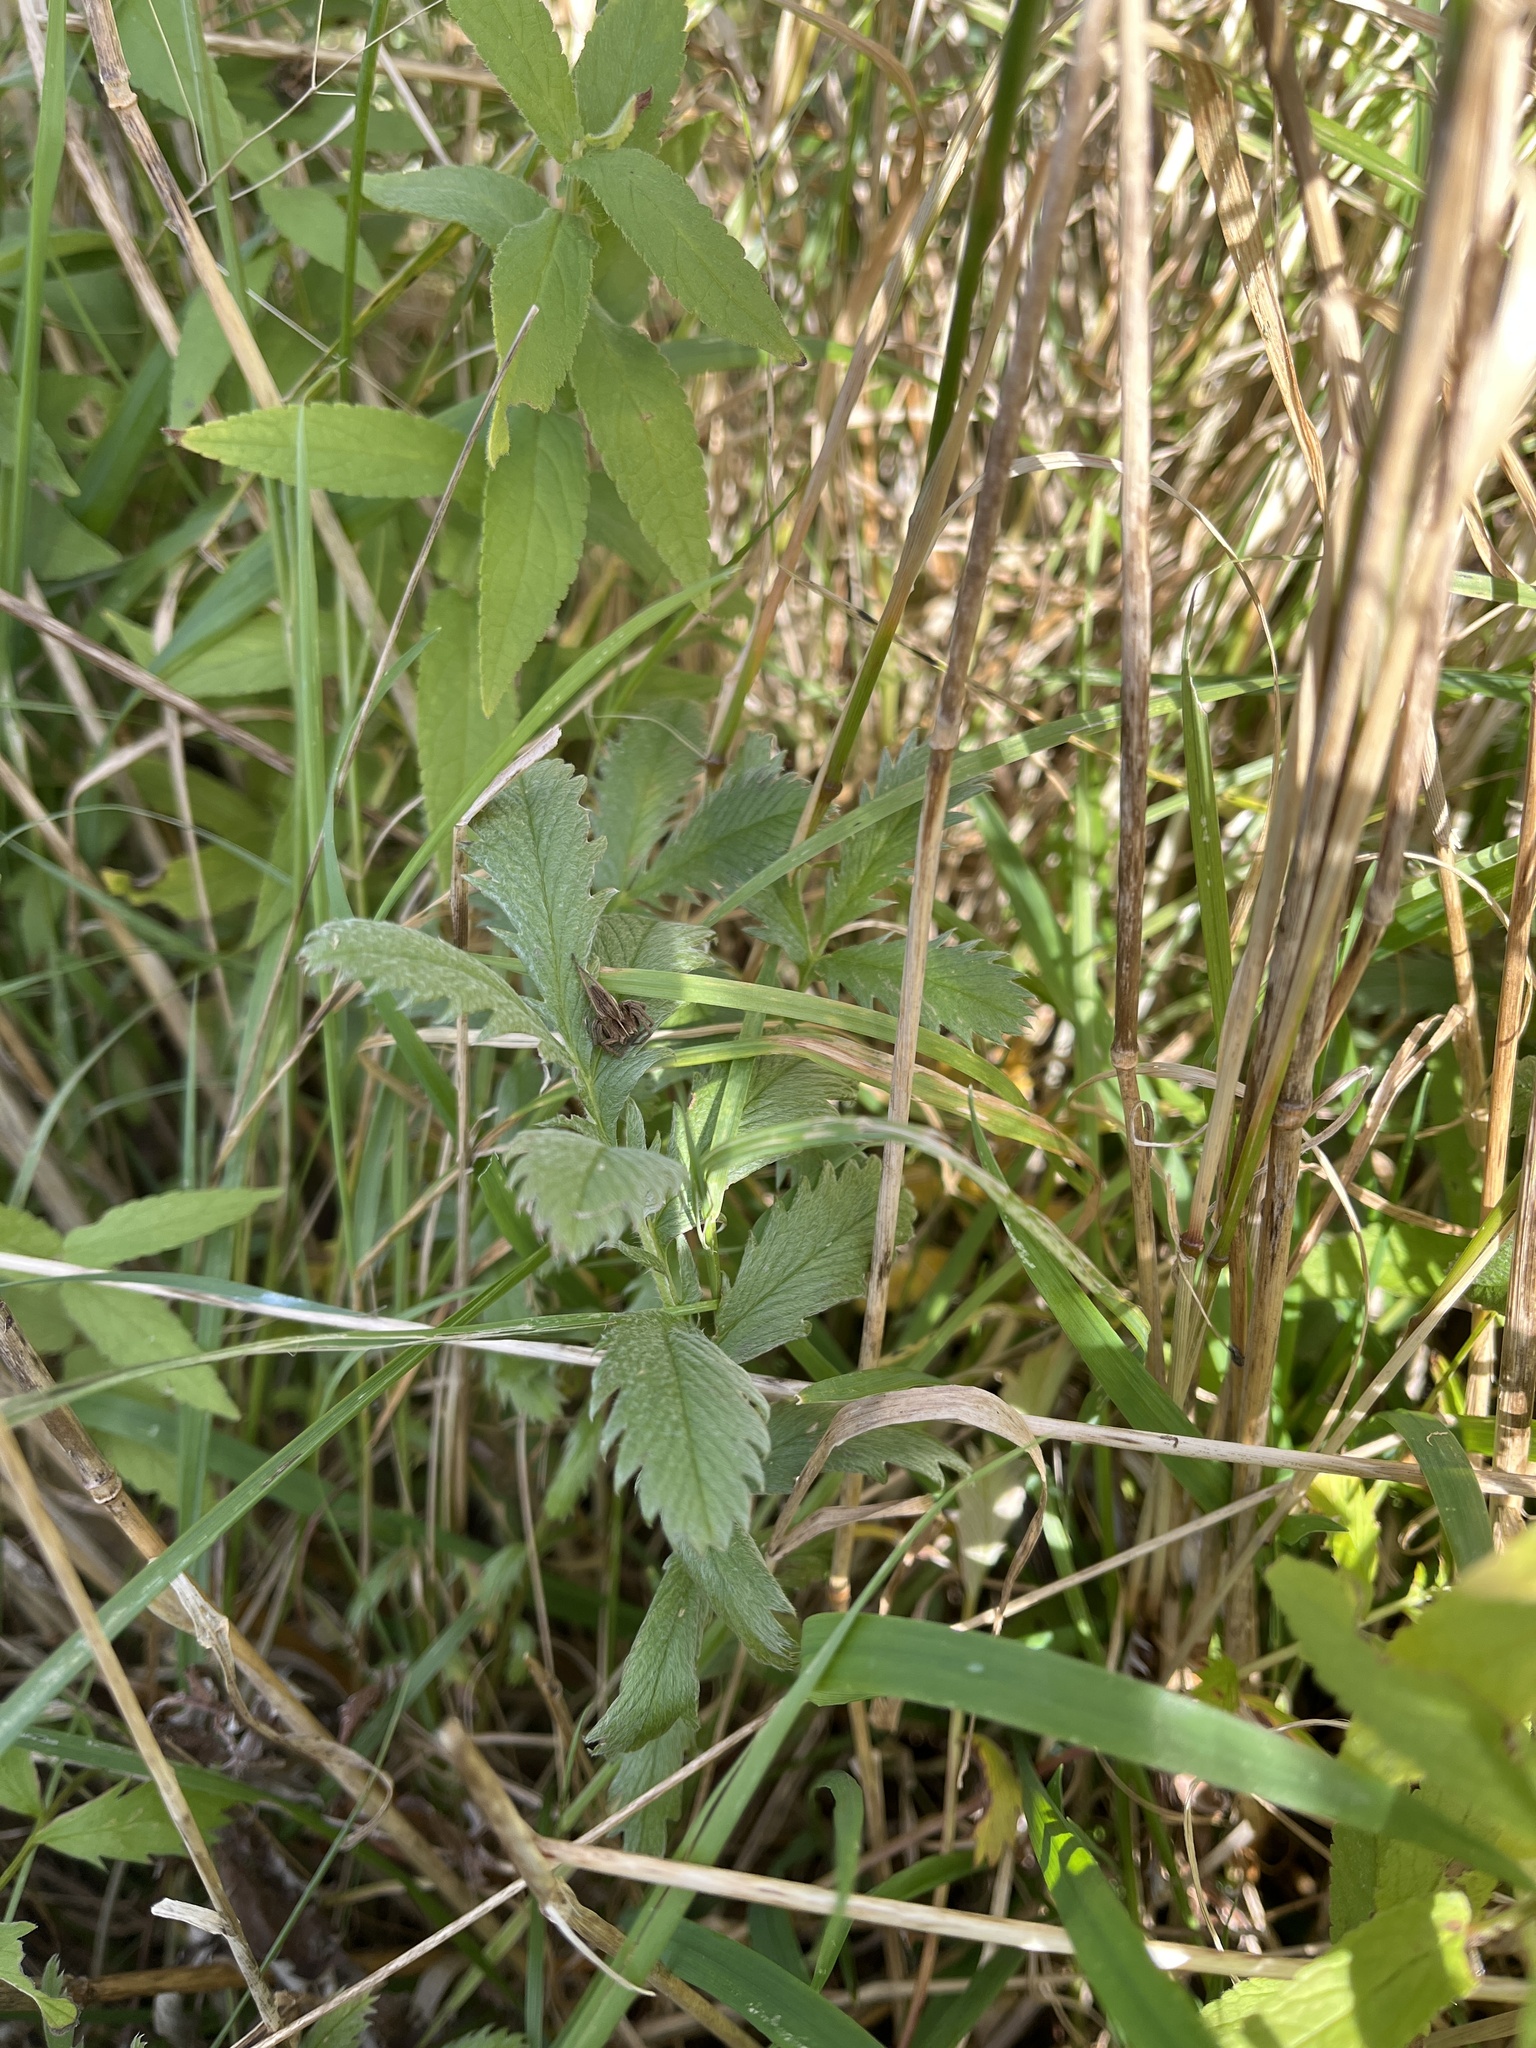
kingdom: Plantae
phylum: Tracheophyta
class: Magnoliopsida
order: Rosales
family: Rosaceae
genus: Argentina
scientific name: Argentina anserina
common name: Common silverweed
